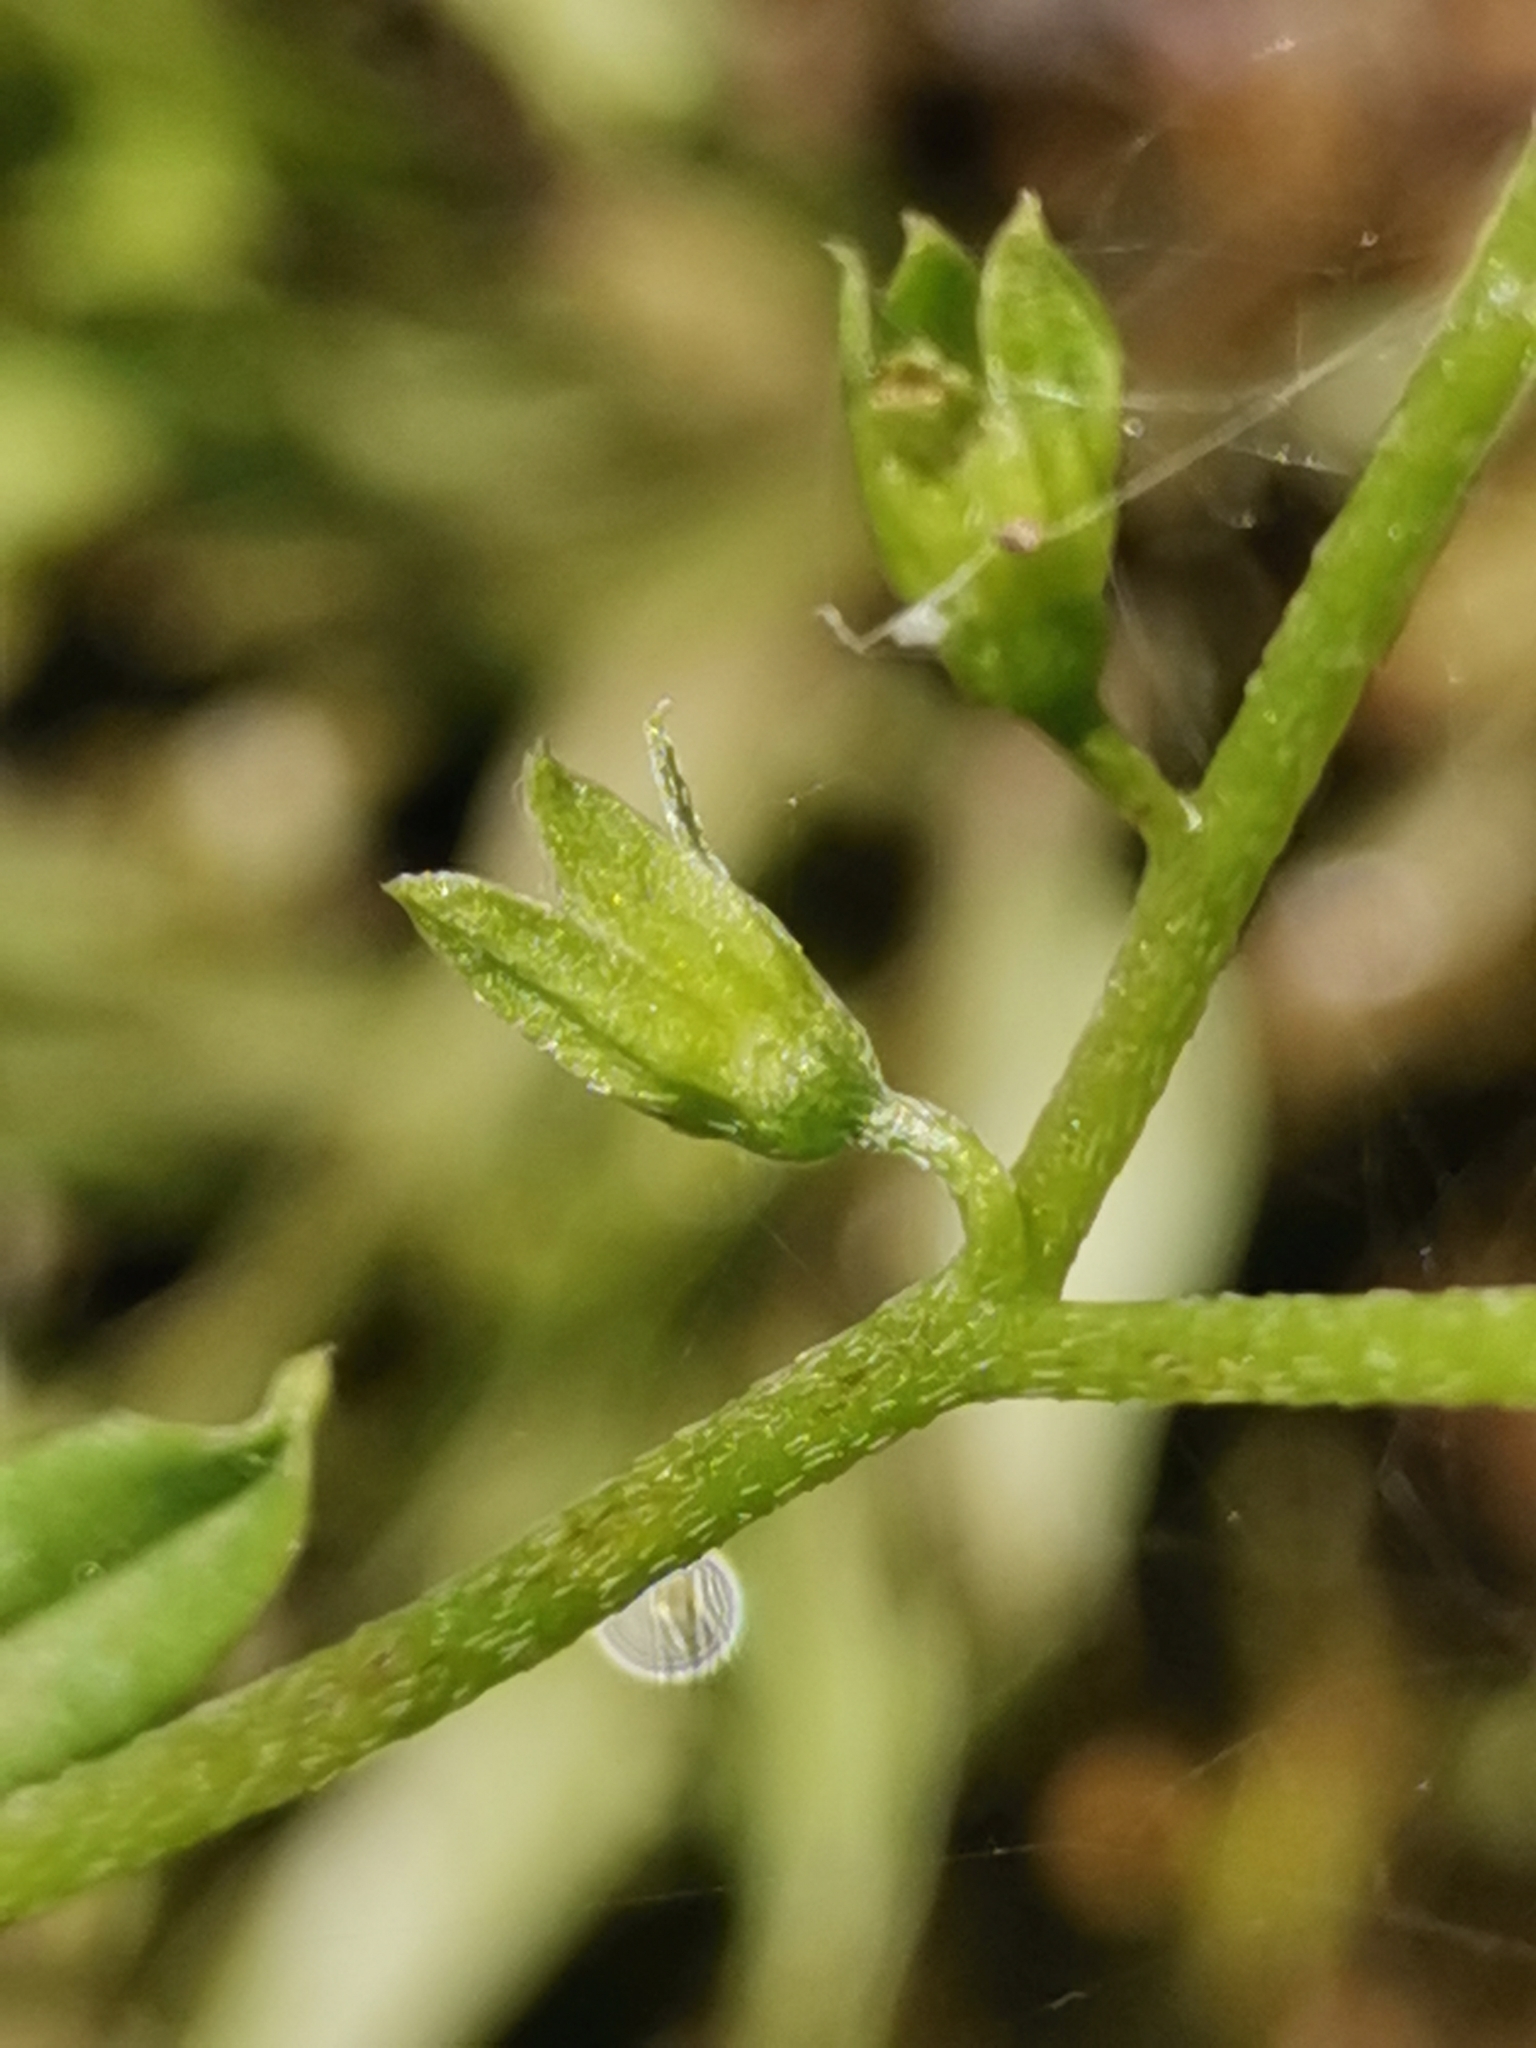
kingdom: Plantae
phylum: Tracheophyta
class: Magnoliopsida
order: Boraginales
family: Boraginaceae
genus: Myosotis
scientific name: Myosotis scorpioides
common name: Water forget-me-not
